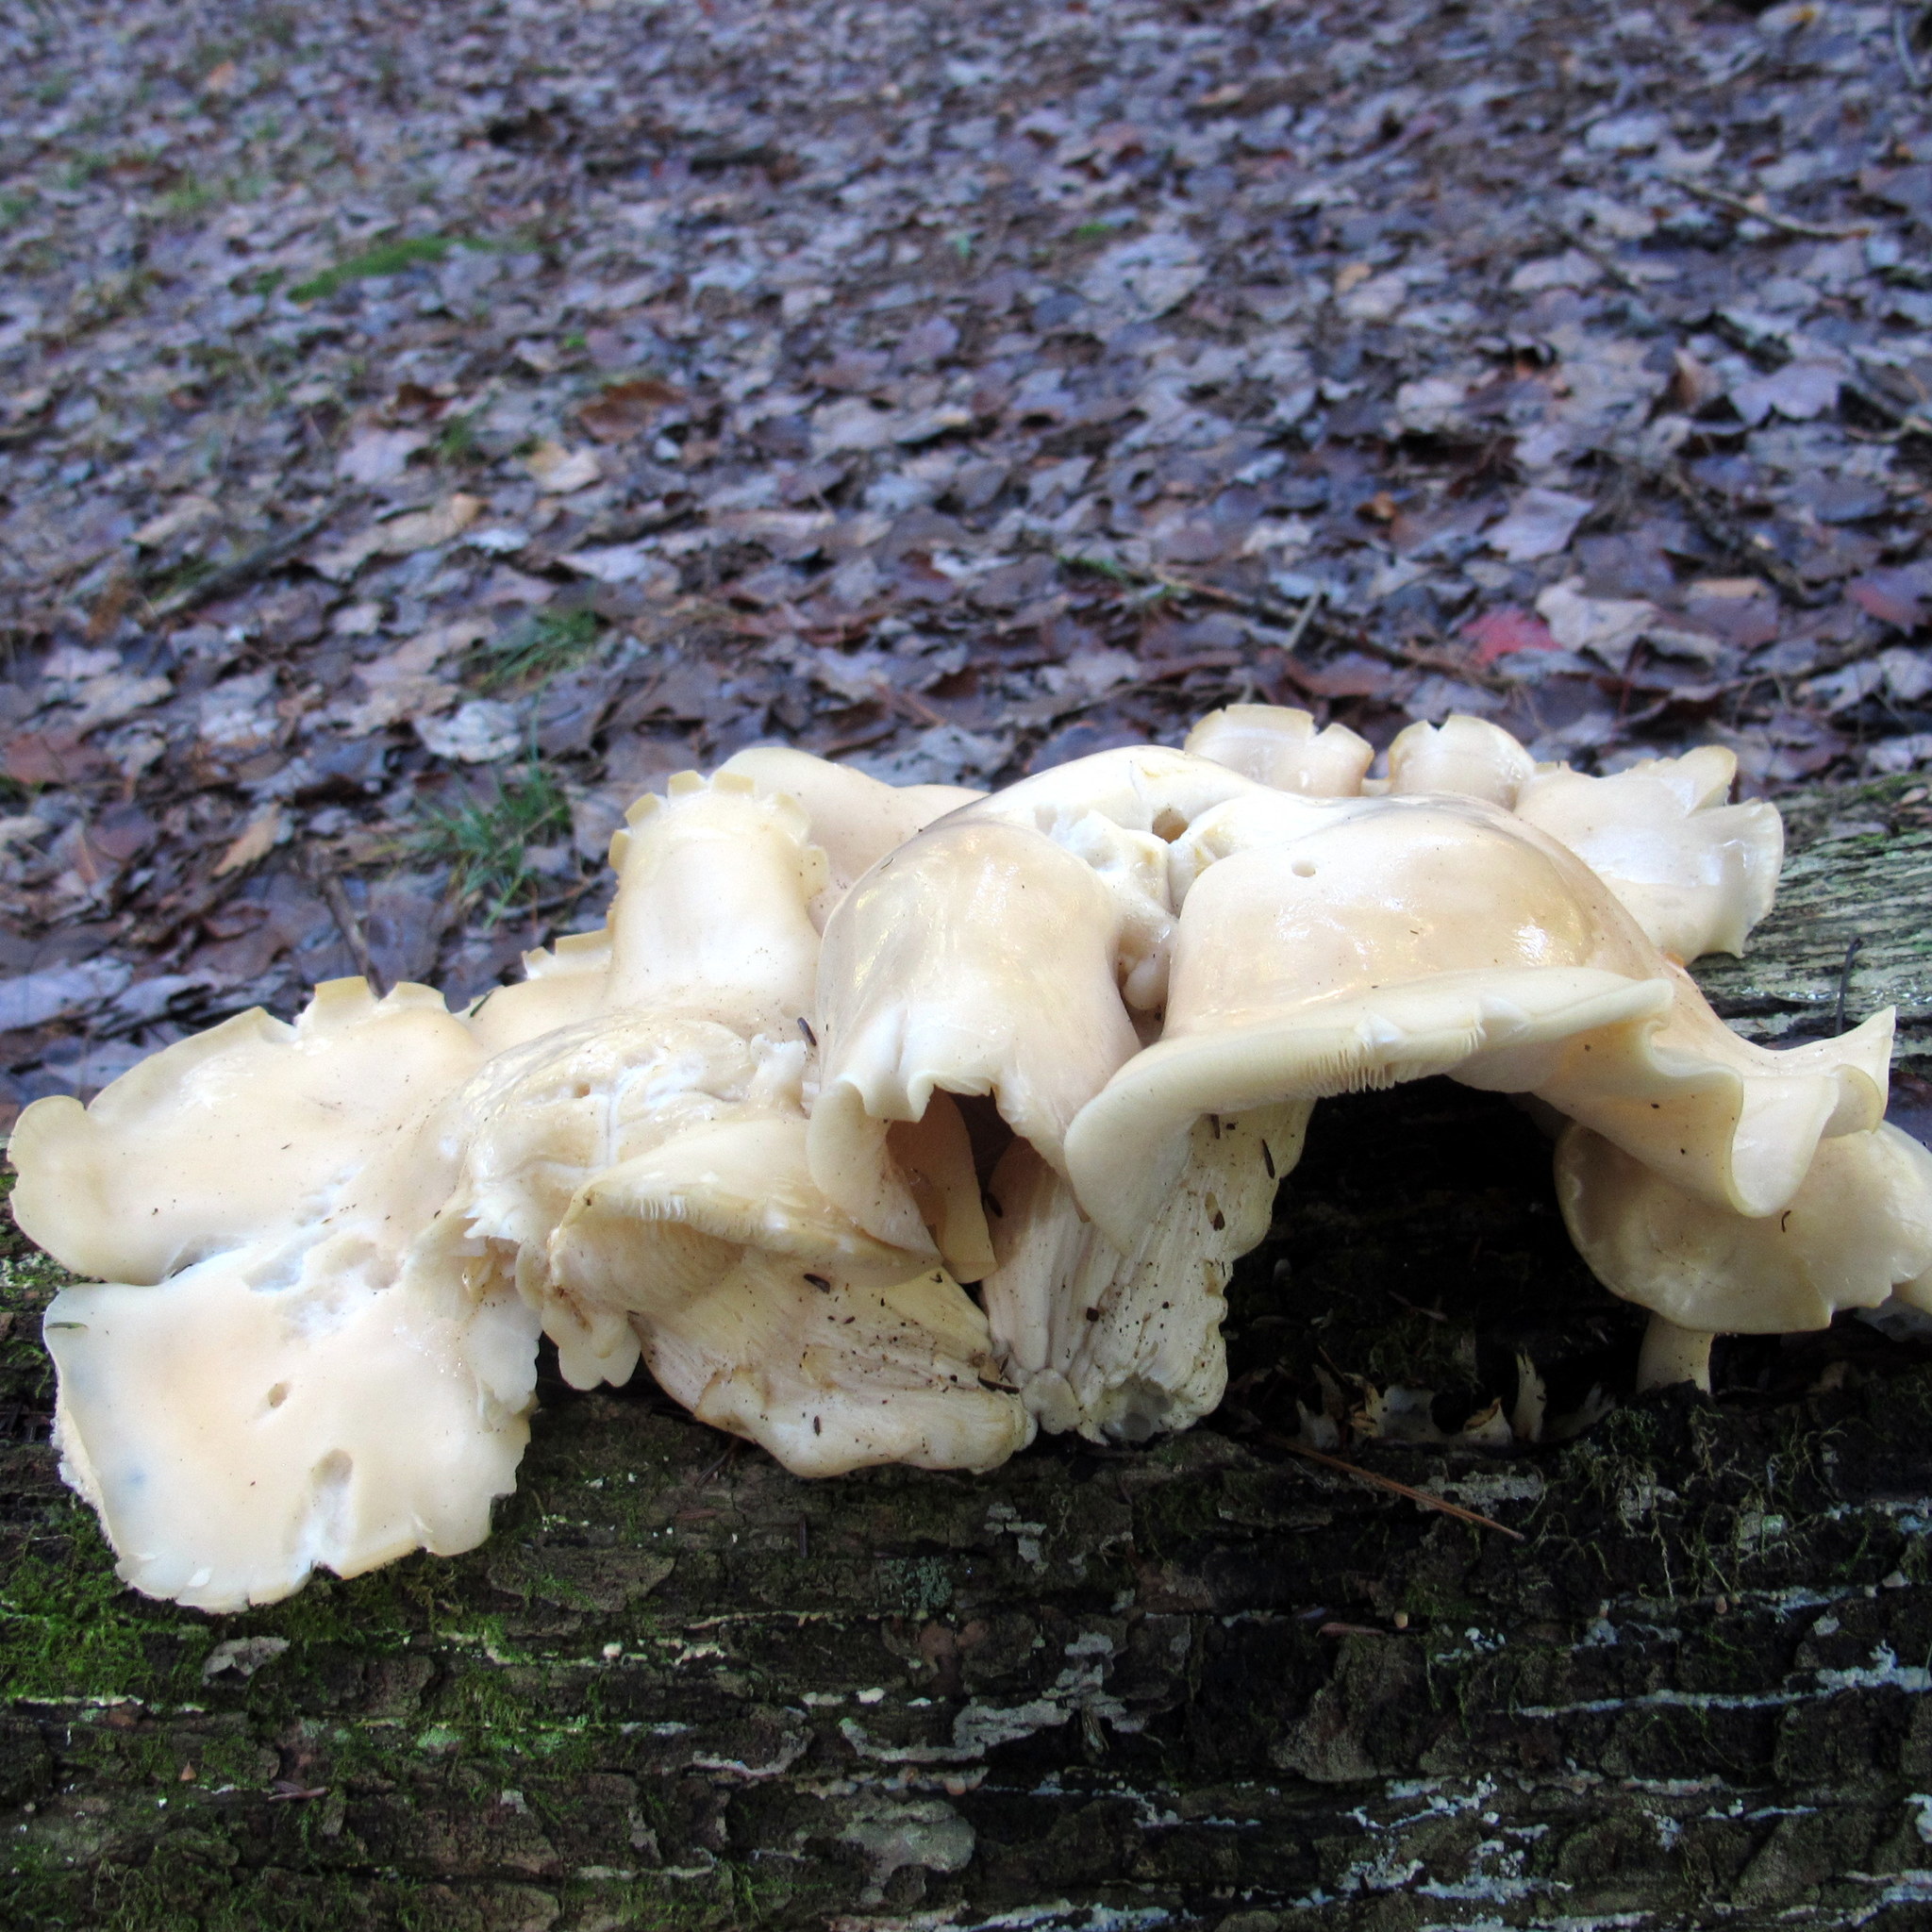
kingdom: Fungi
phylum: Basidiomycota
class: Agaricomycetes
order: Agaricales
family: Lyophyllaceae
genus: Hypsizygus
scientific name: Hypsizygus marmoreus
